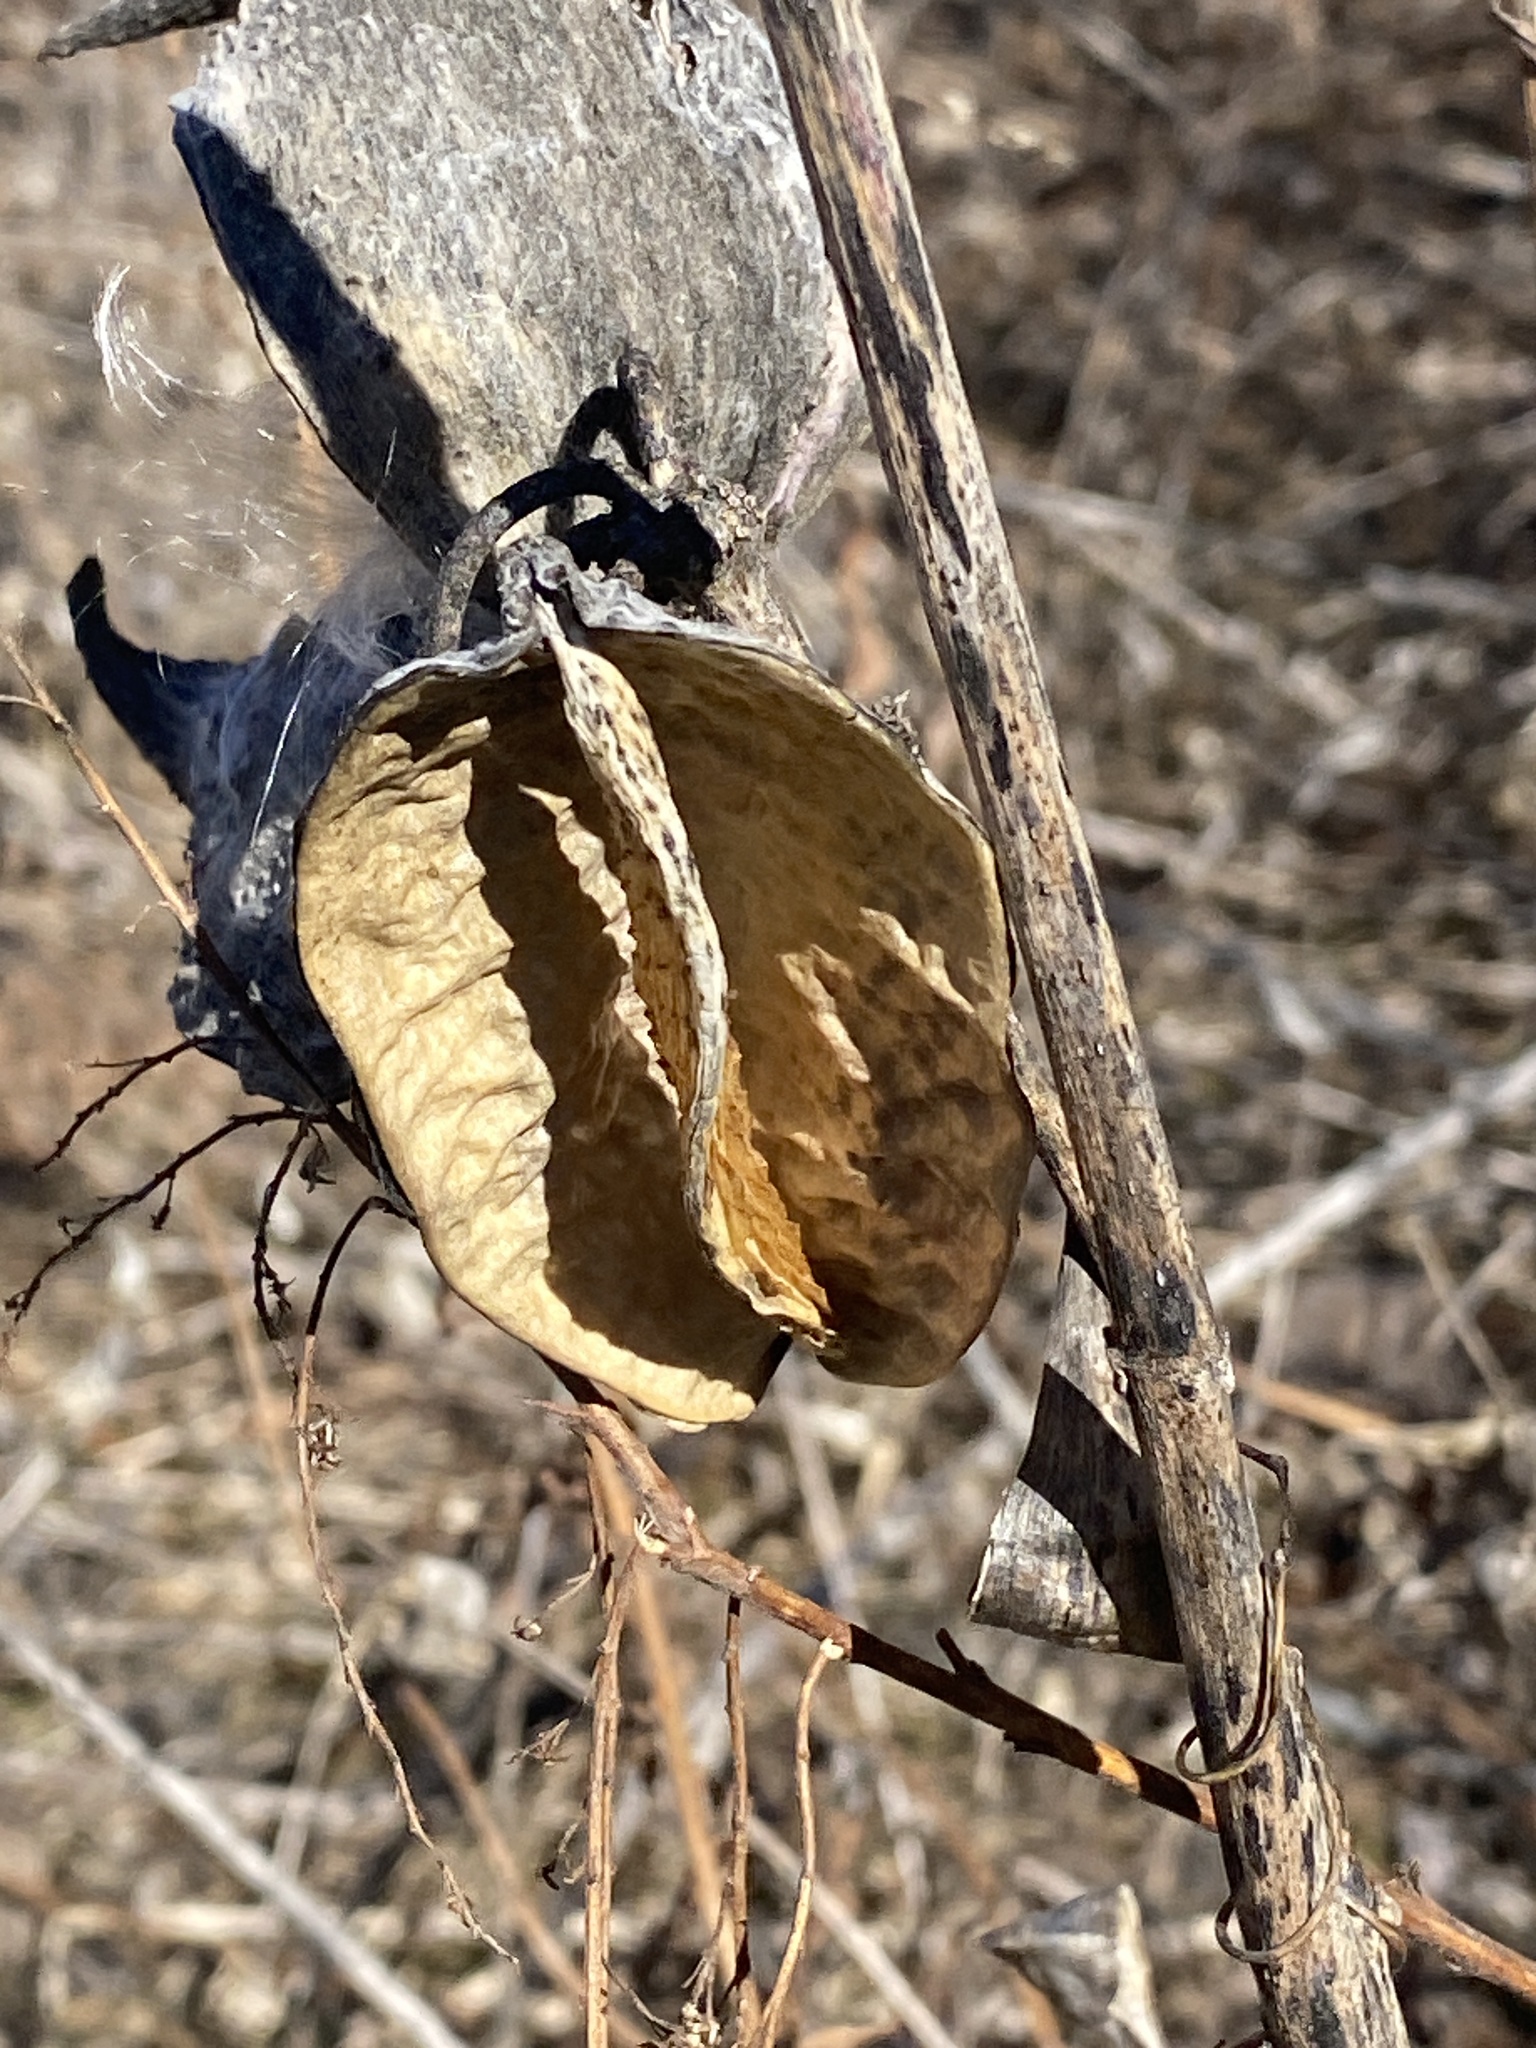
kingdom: Plantae
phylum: Tracheophyta
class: Magnoliopsida
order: Gentianales
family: Apocynaceae
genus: Asclepias
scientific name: Asclepias syriaca
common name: Common milkweed
